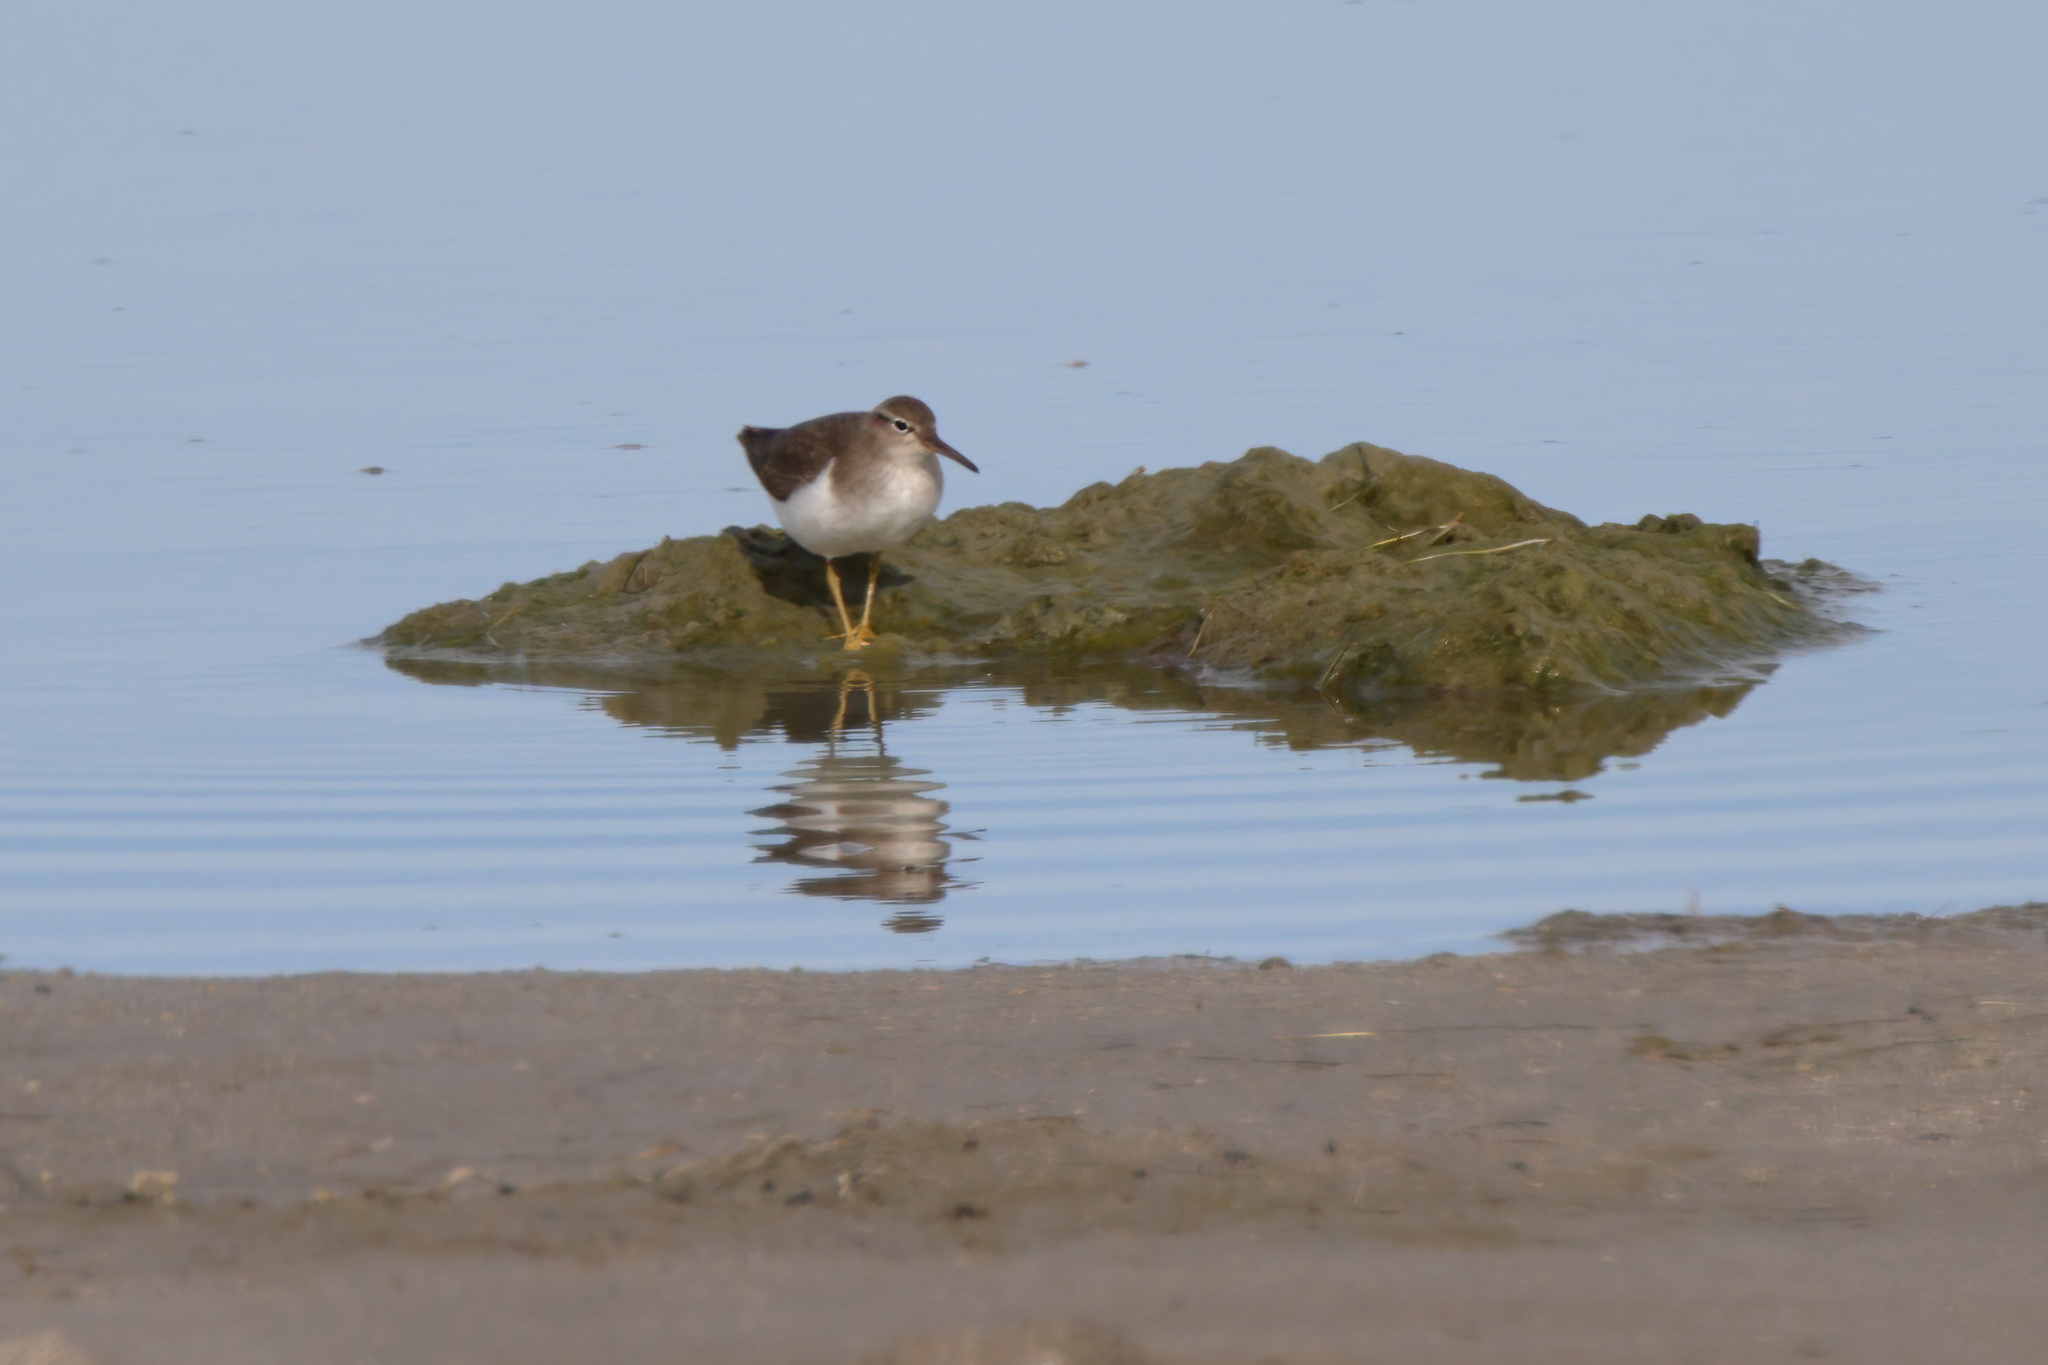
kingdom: Animalia
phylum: Chordata
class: Aves
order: Charadriiformes
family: Scolopacidae
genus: Actitis
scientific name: Actitis macularius
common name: Spotted sandpiper
